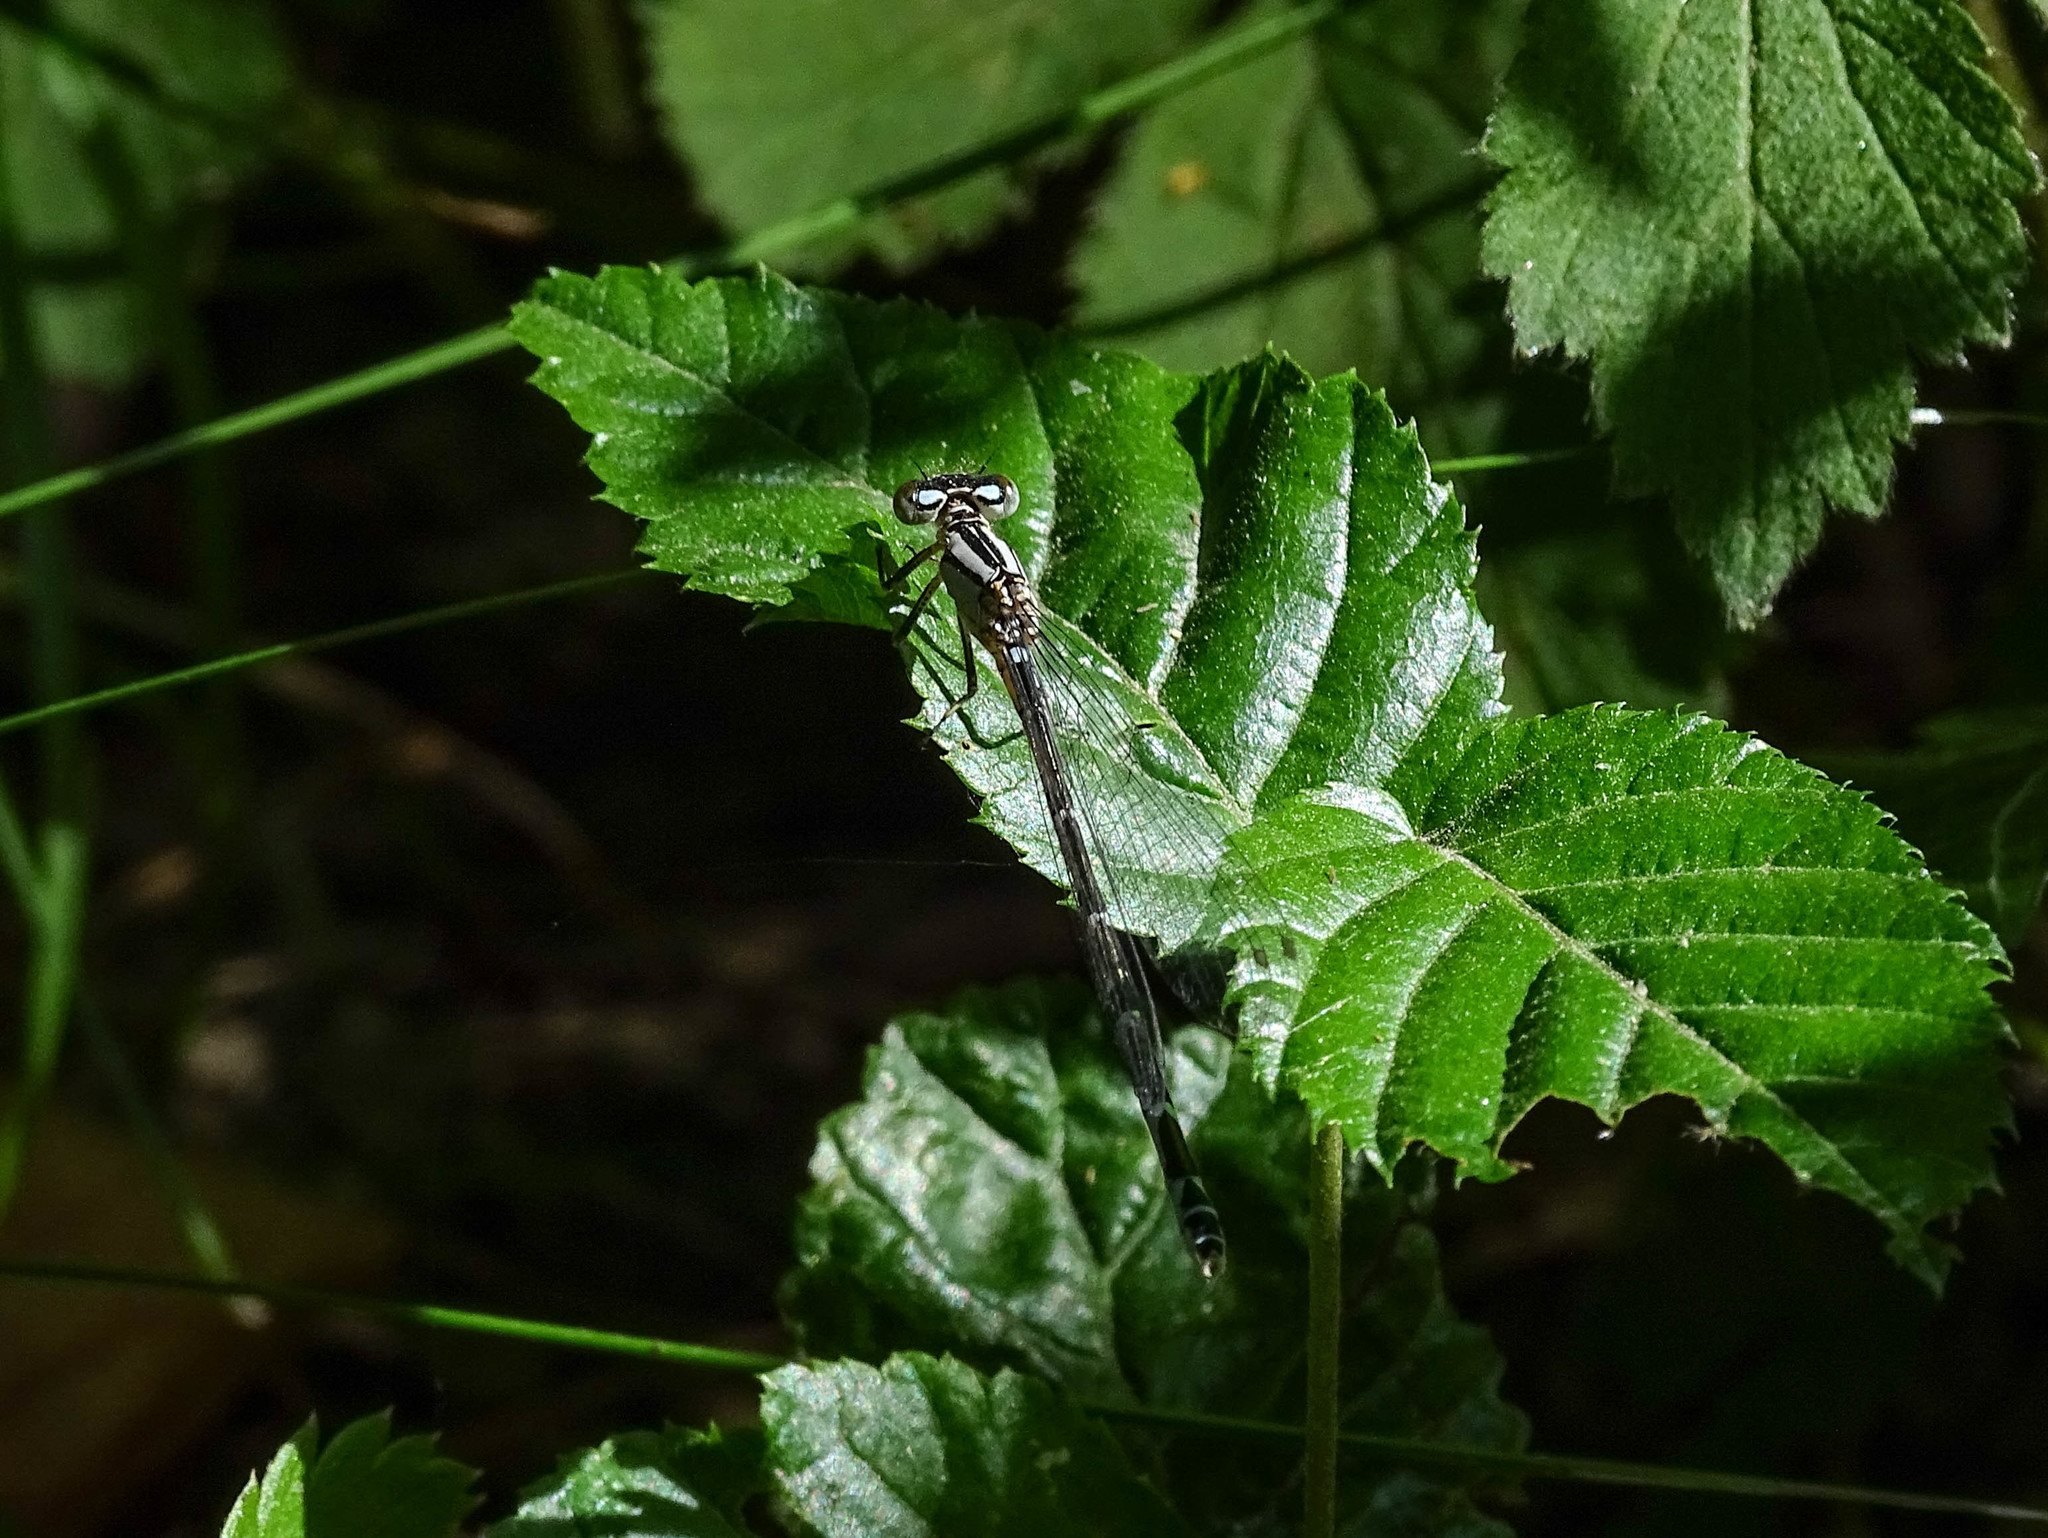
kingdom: Animalia
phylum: Arthropoda
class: Insecta
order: Odonata
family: Coenagrionidae
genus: Enallagma
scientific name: Enallagma cyathigerum
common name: Common blue damselfly
